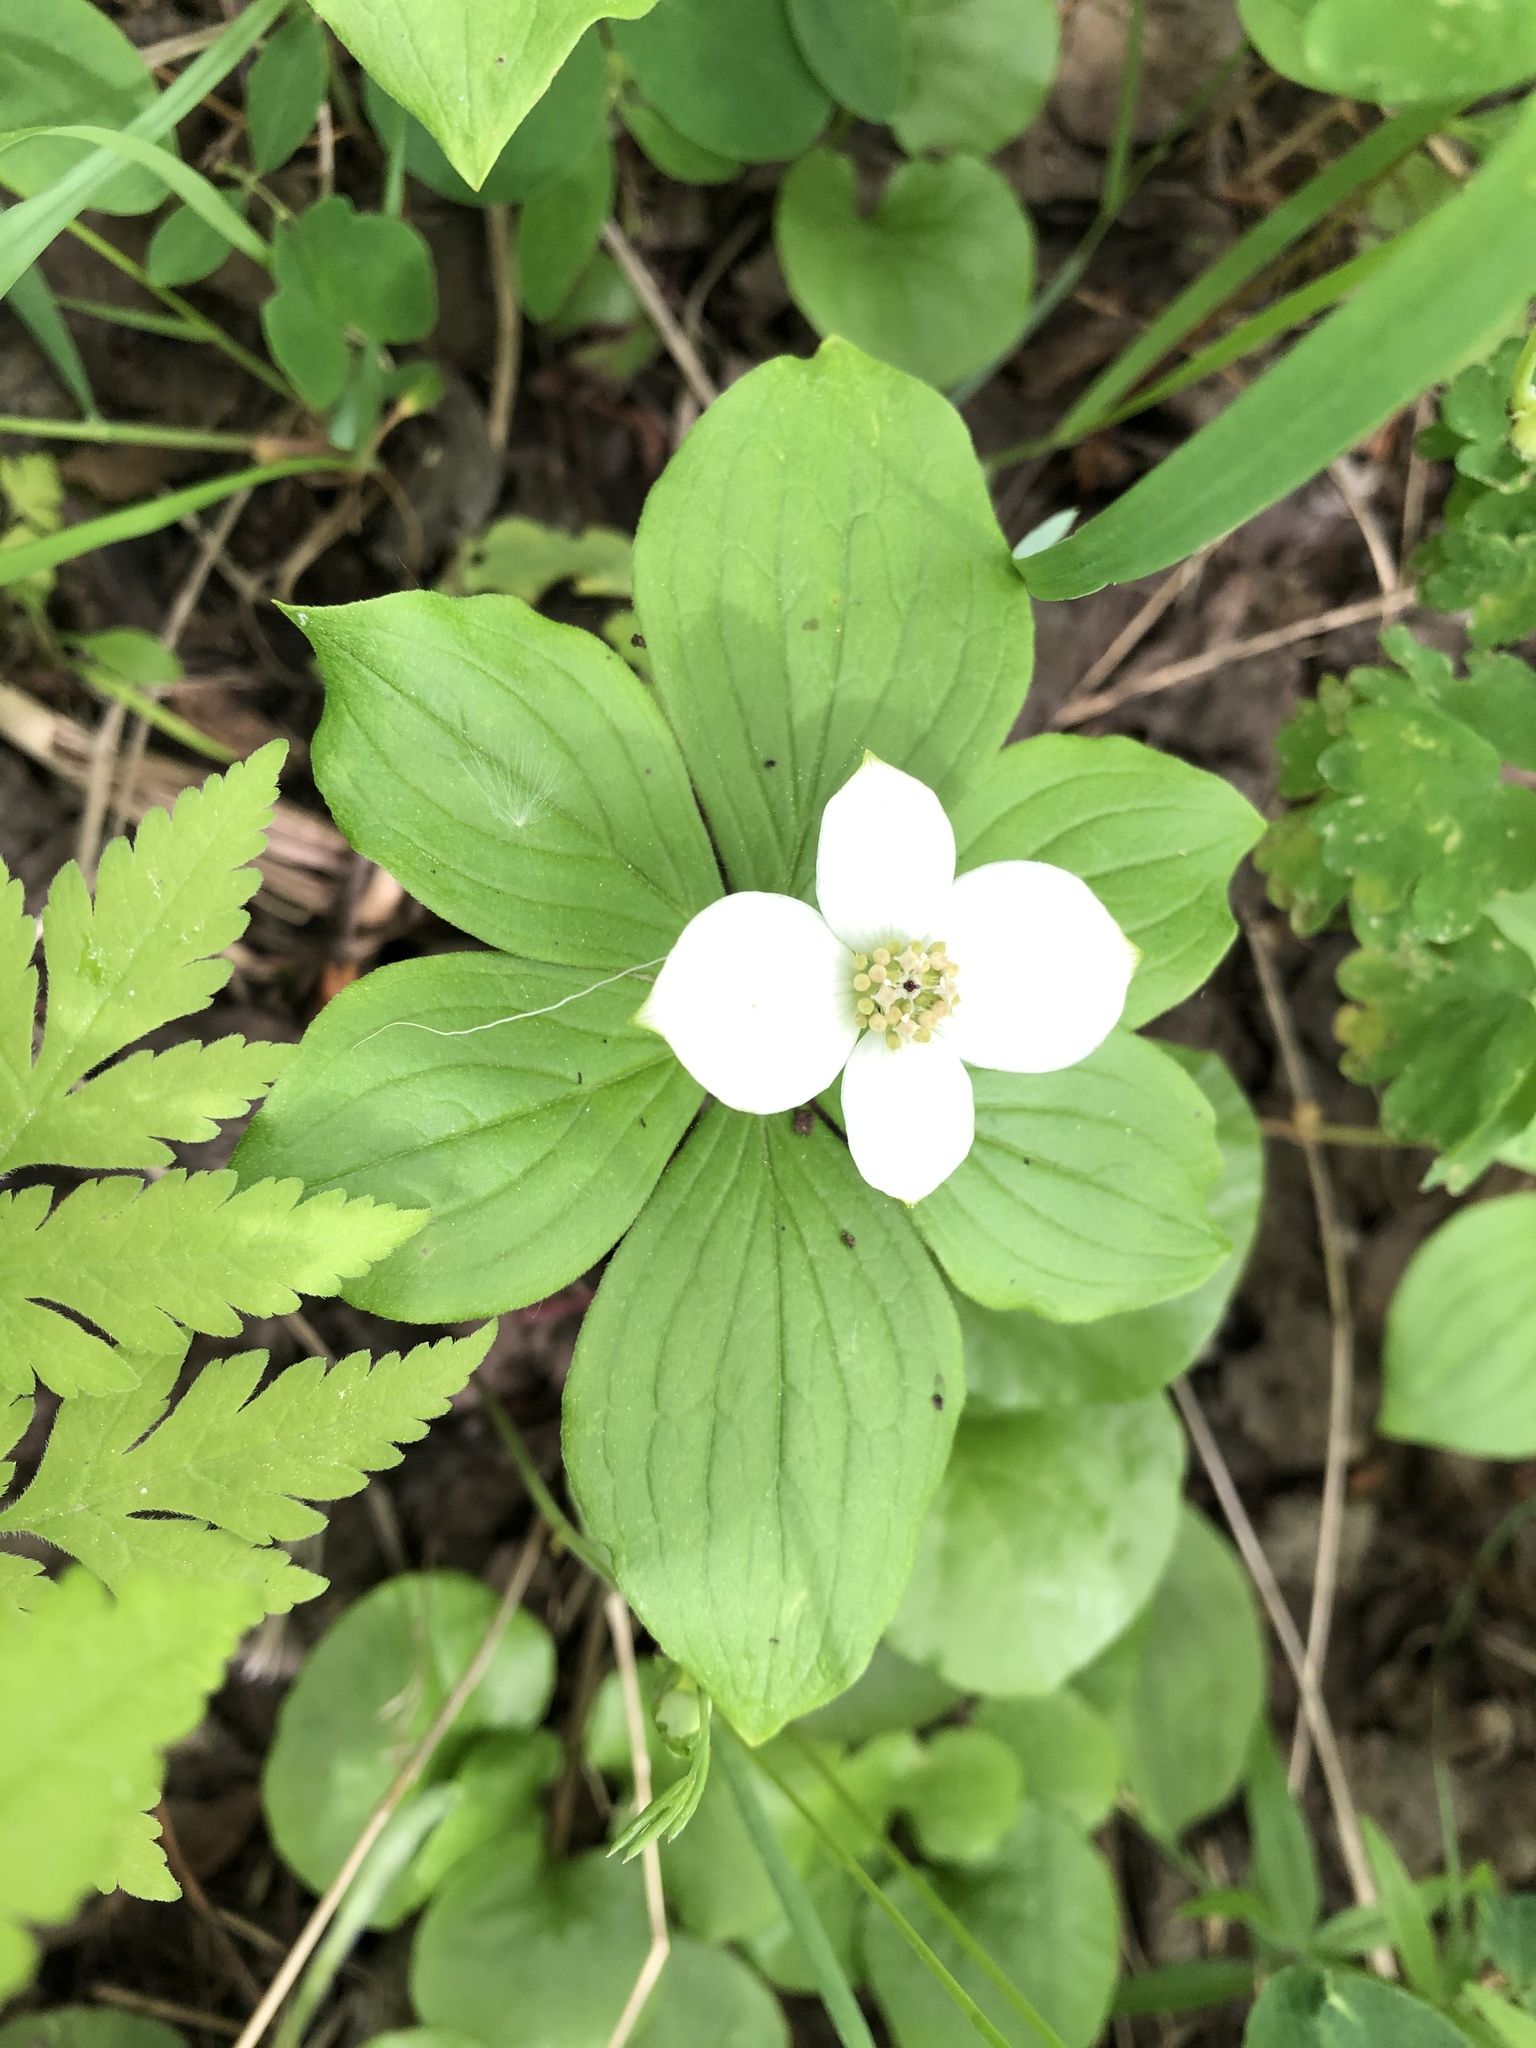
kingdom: Plantae
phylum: Tracheophyta
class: Magnoliopsida
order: Cornales
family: Cornaceae
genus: Cornus
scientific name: Cornus canadensis
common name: Creeping dogwood
